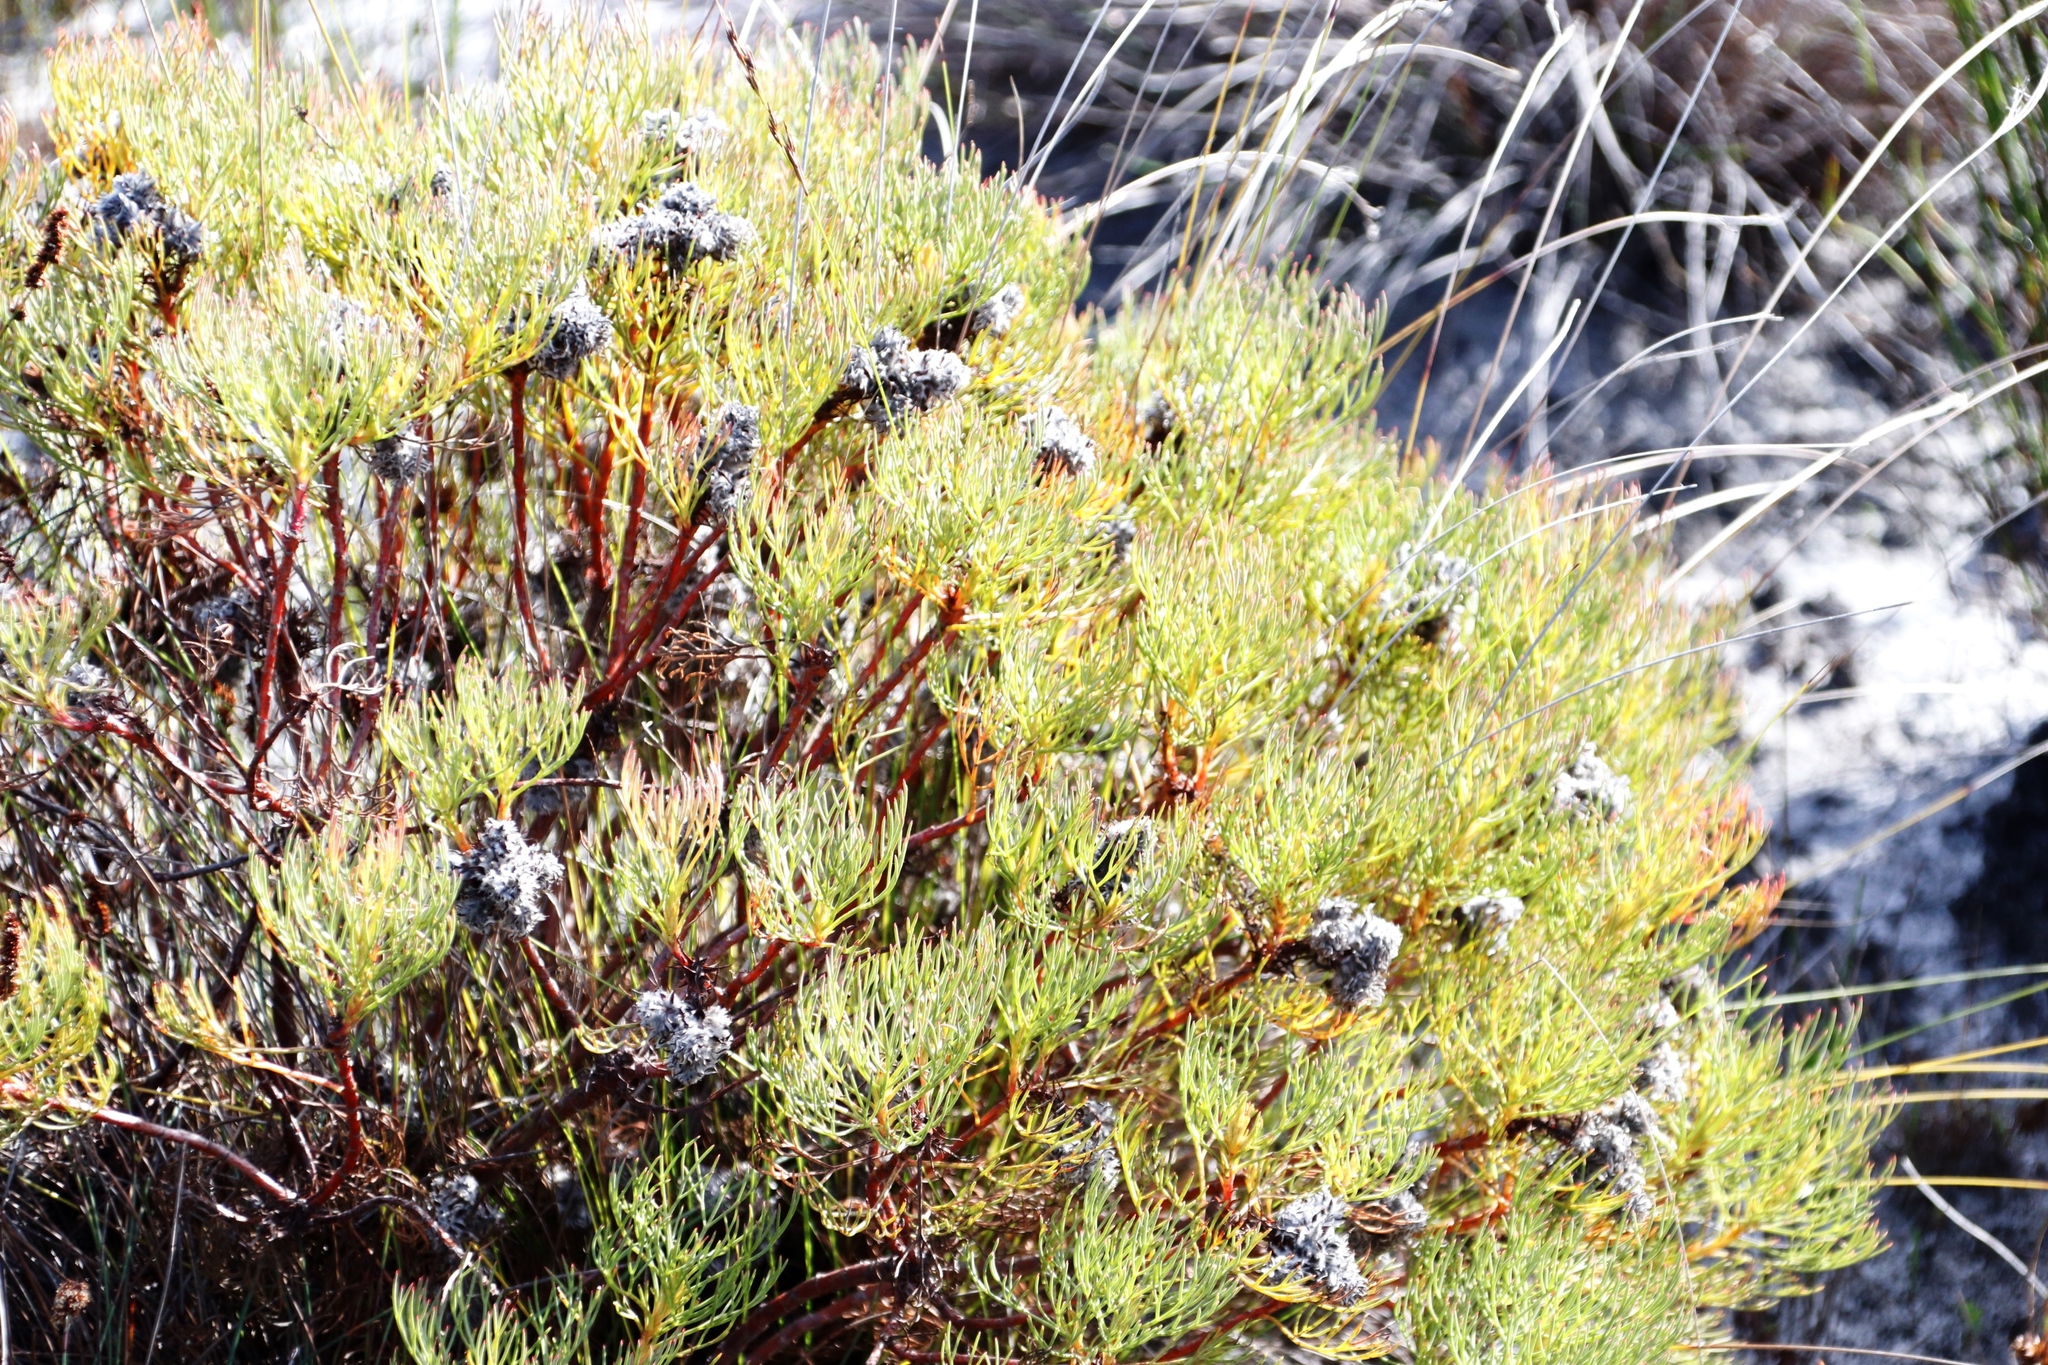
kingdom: Plantae
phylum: Tracheophyta
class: Magnoliopsida
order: Proteales
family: Proteaceae
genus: Serruria
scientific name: Serruria glomerata
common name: Cluster spiderhead
